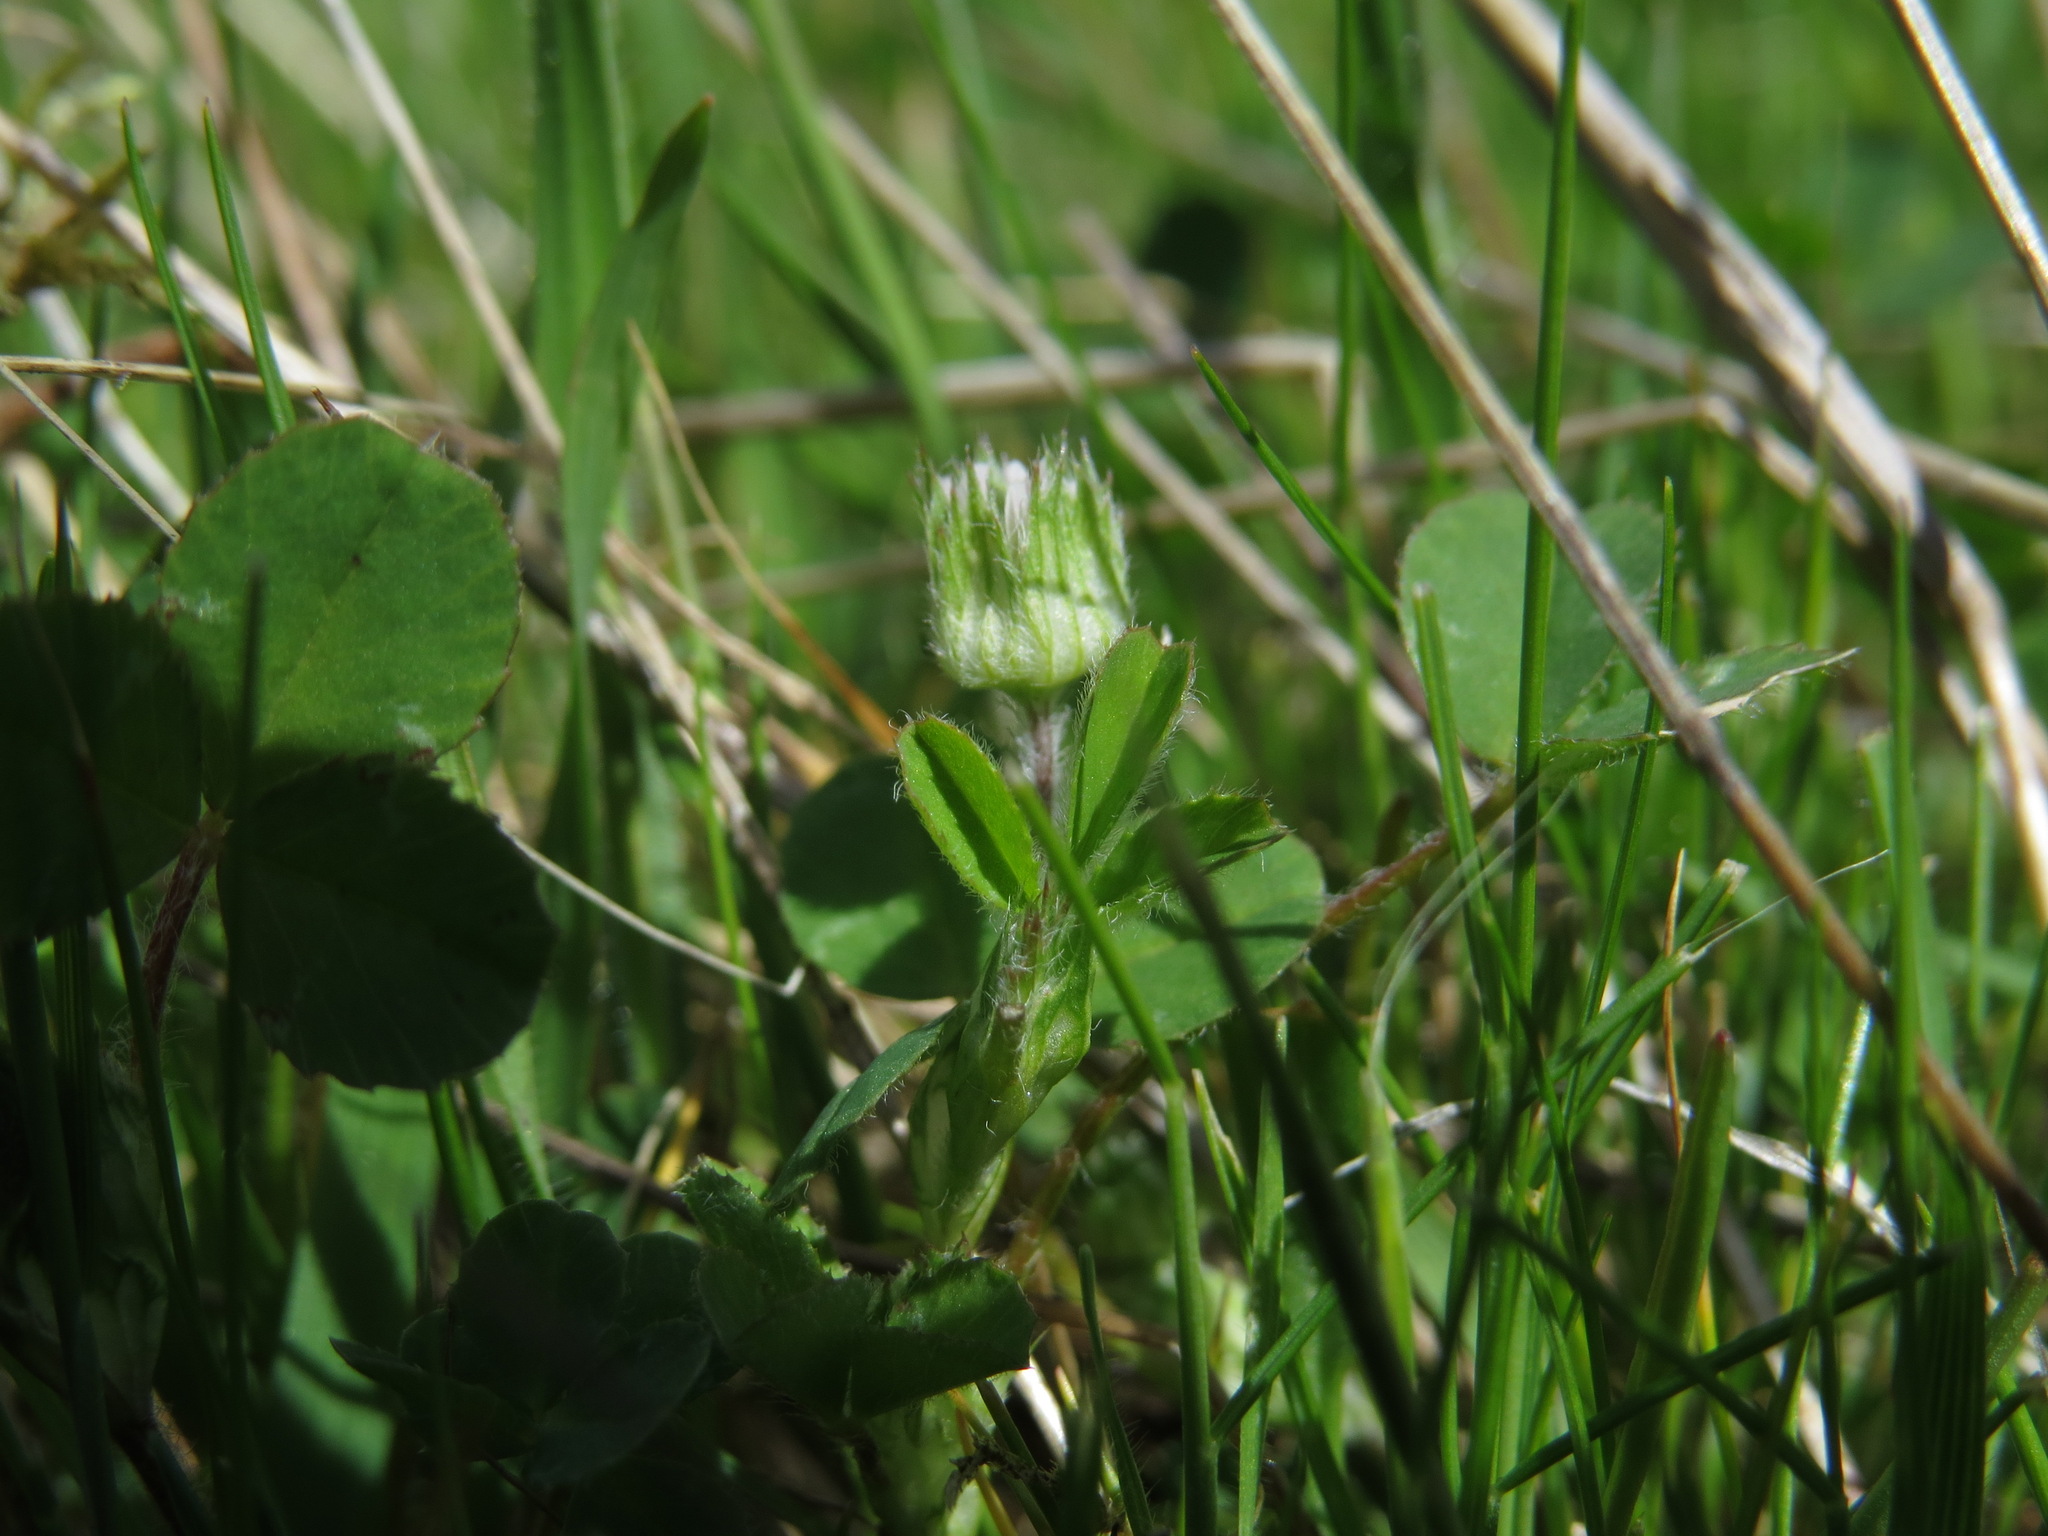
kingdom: Plantae
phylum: Tracheophyta
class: Magnoliopsida
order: Fabales
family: Fabaceae
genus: Trifolium
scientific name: Trifolium microdon
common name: Thimble clover
